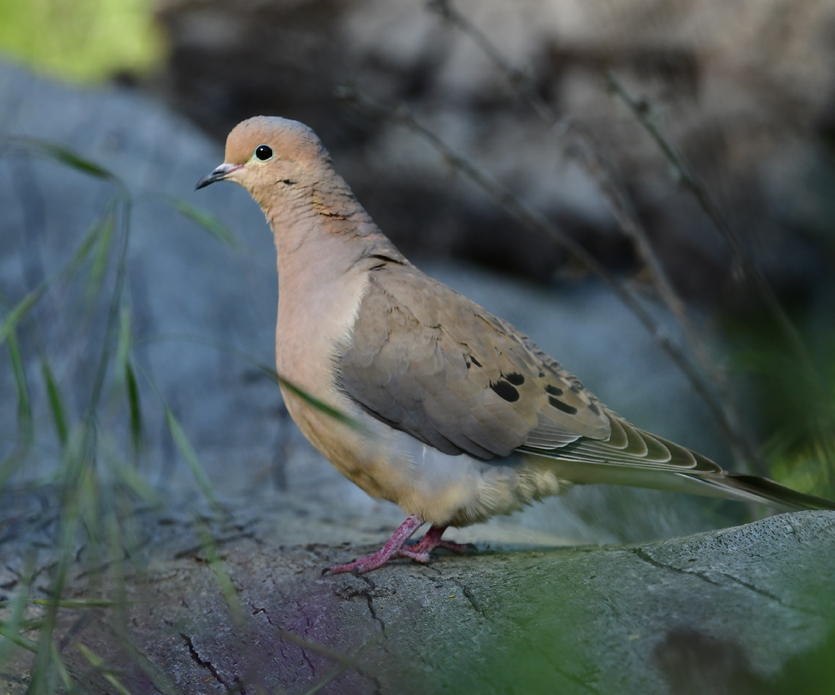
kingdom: Animalia
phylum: Chordata
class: Aves
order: Columbiformes
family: Columbidae
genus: Zenaida
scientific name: Zenaida macroura
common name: Mourning dove
